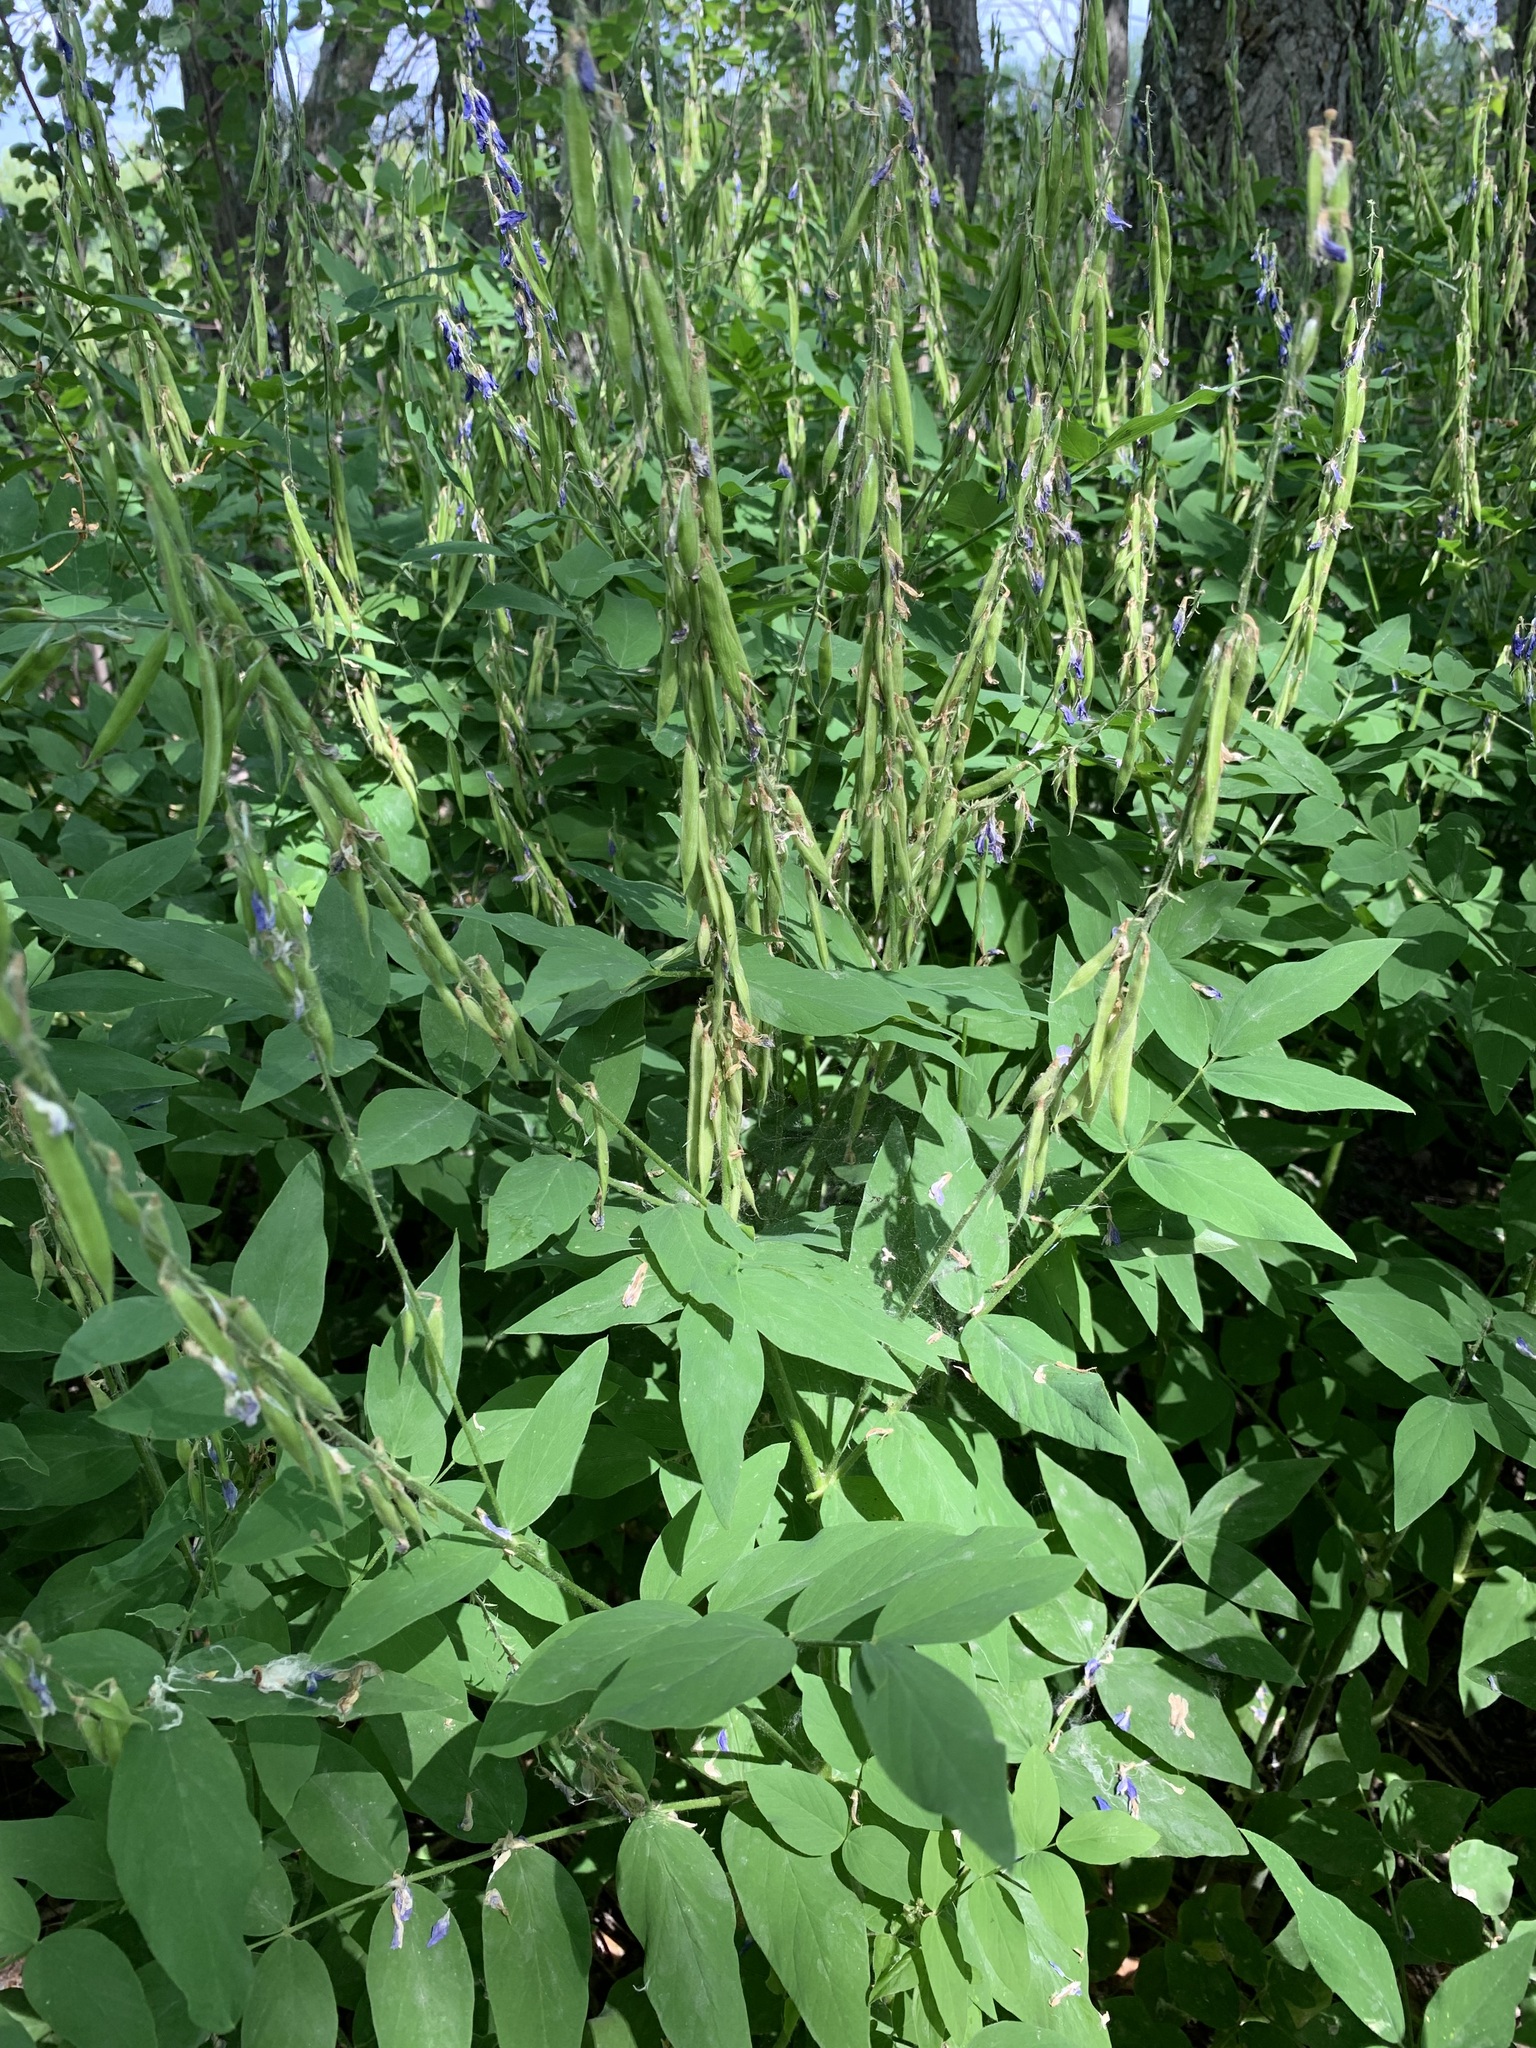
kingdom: Plantae
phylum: Tracheophyta
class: Magnoliopsida
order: Fabales
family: Fabaceae
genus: Galega
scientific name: Galega orientalis
